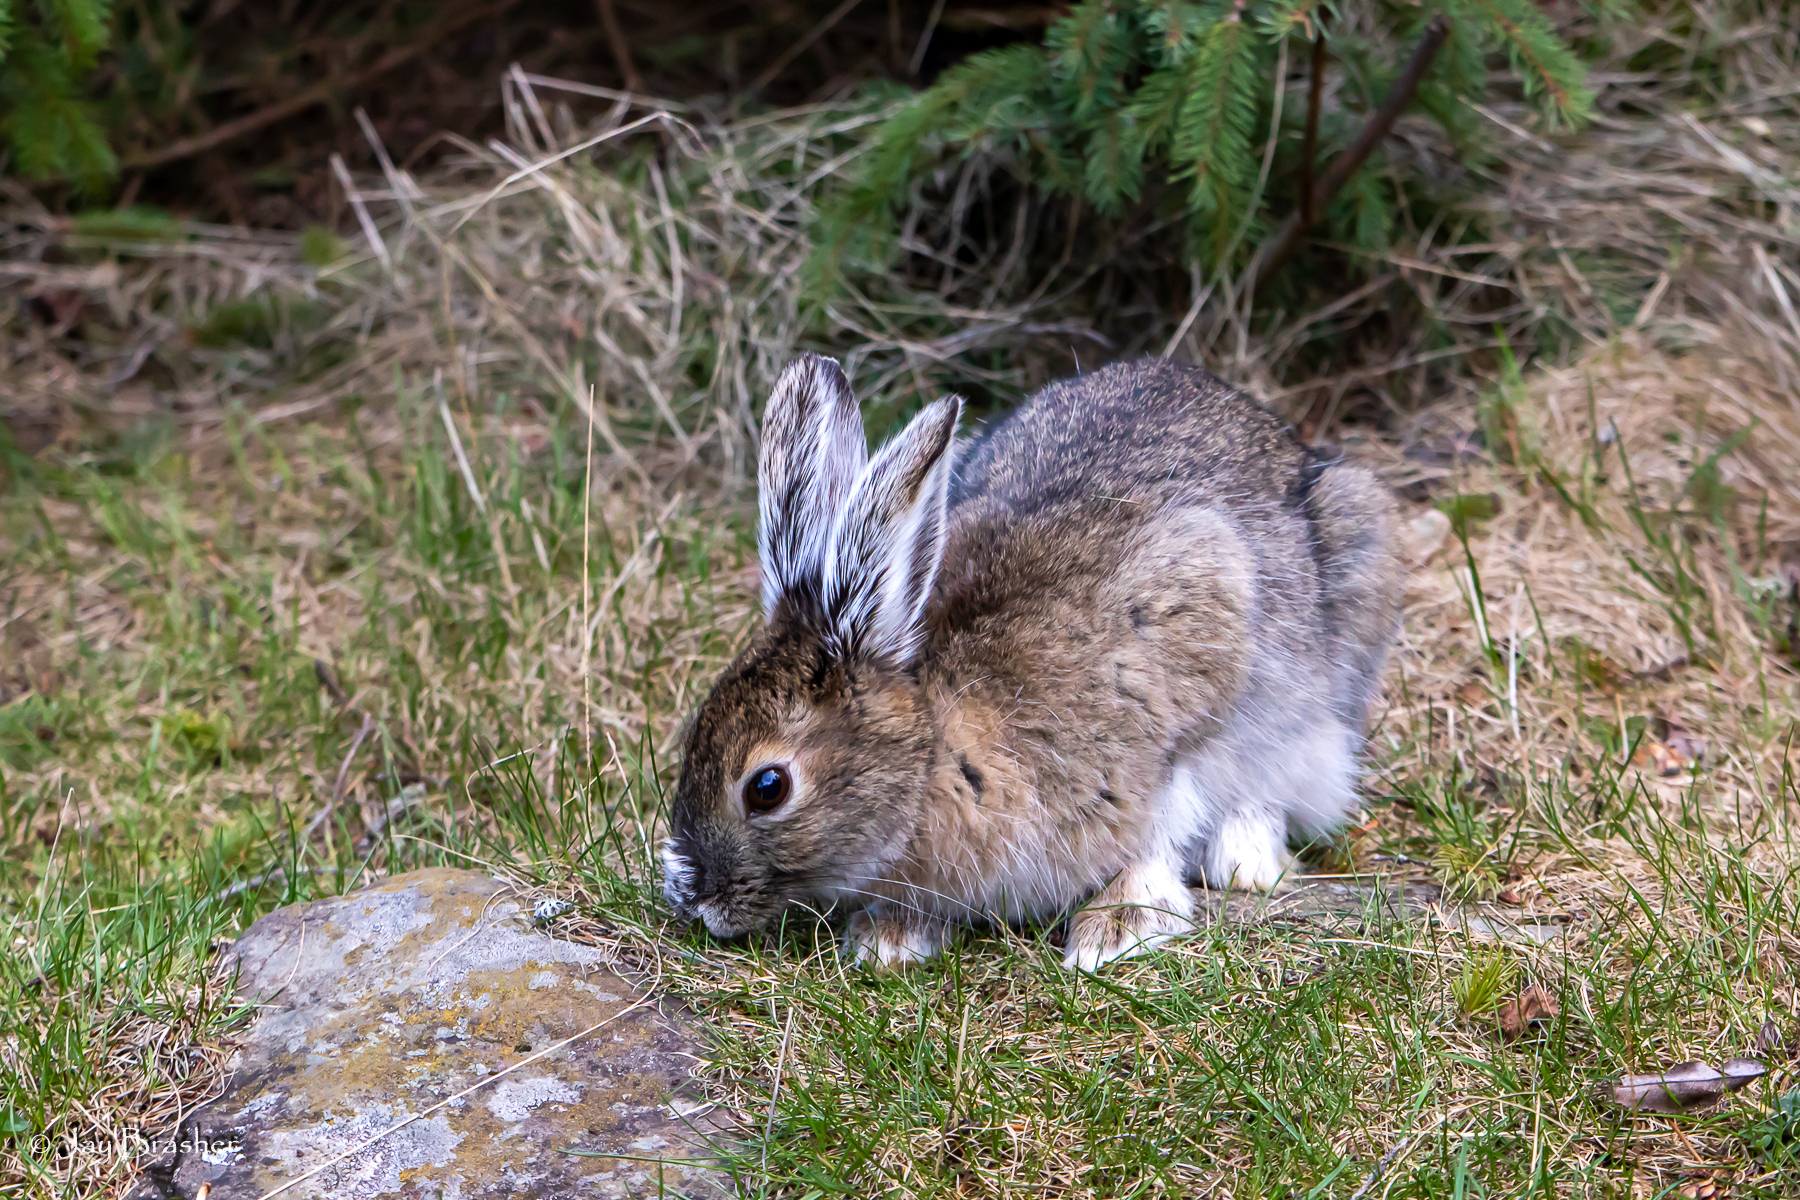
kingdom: Animalia
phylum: Chordata
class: Mammalia
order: Lagomorpha
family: Leporidae
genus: Lepus
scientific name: Lepus americanus
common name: Snowshoe hare
